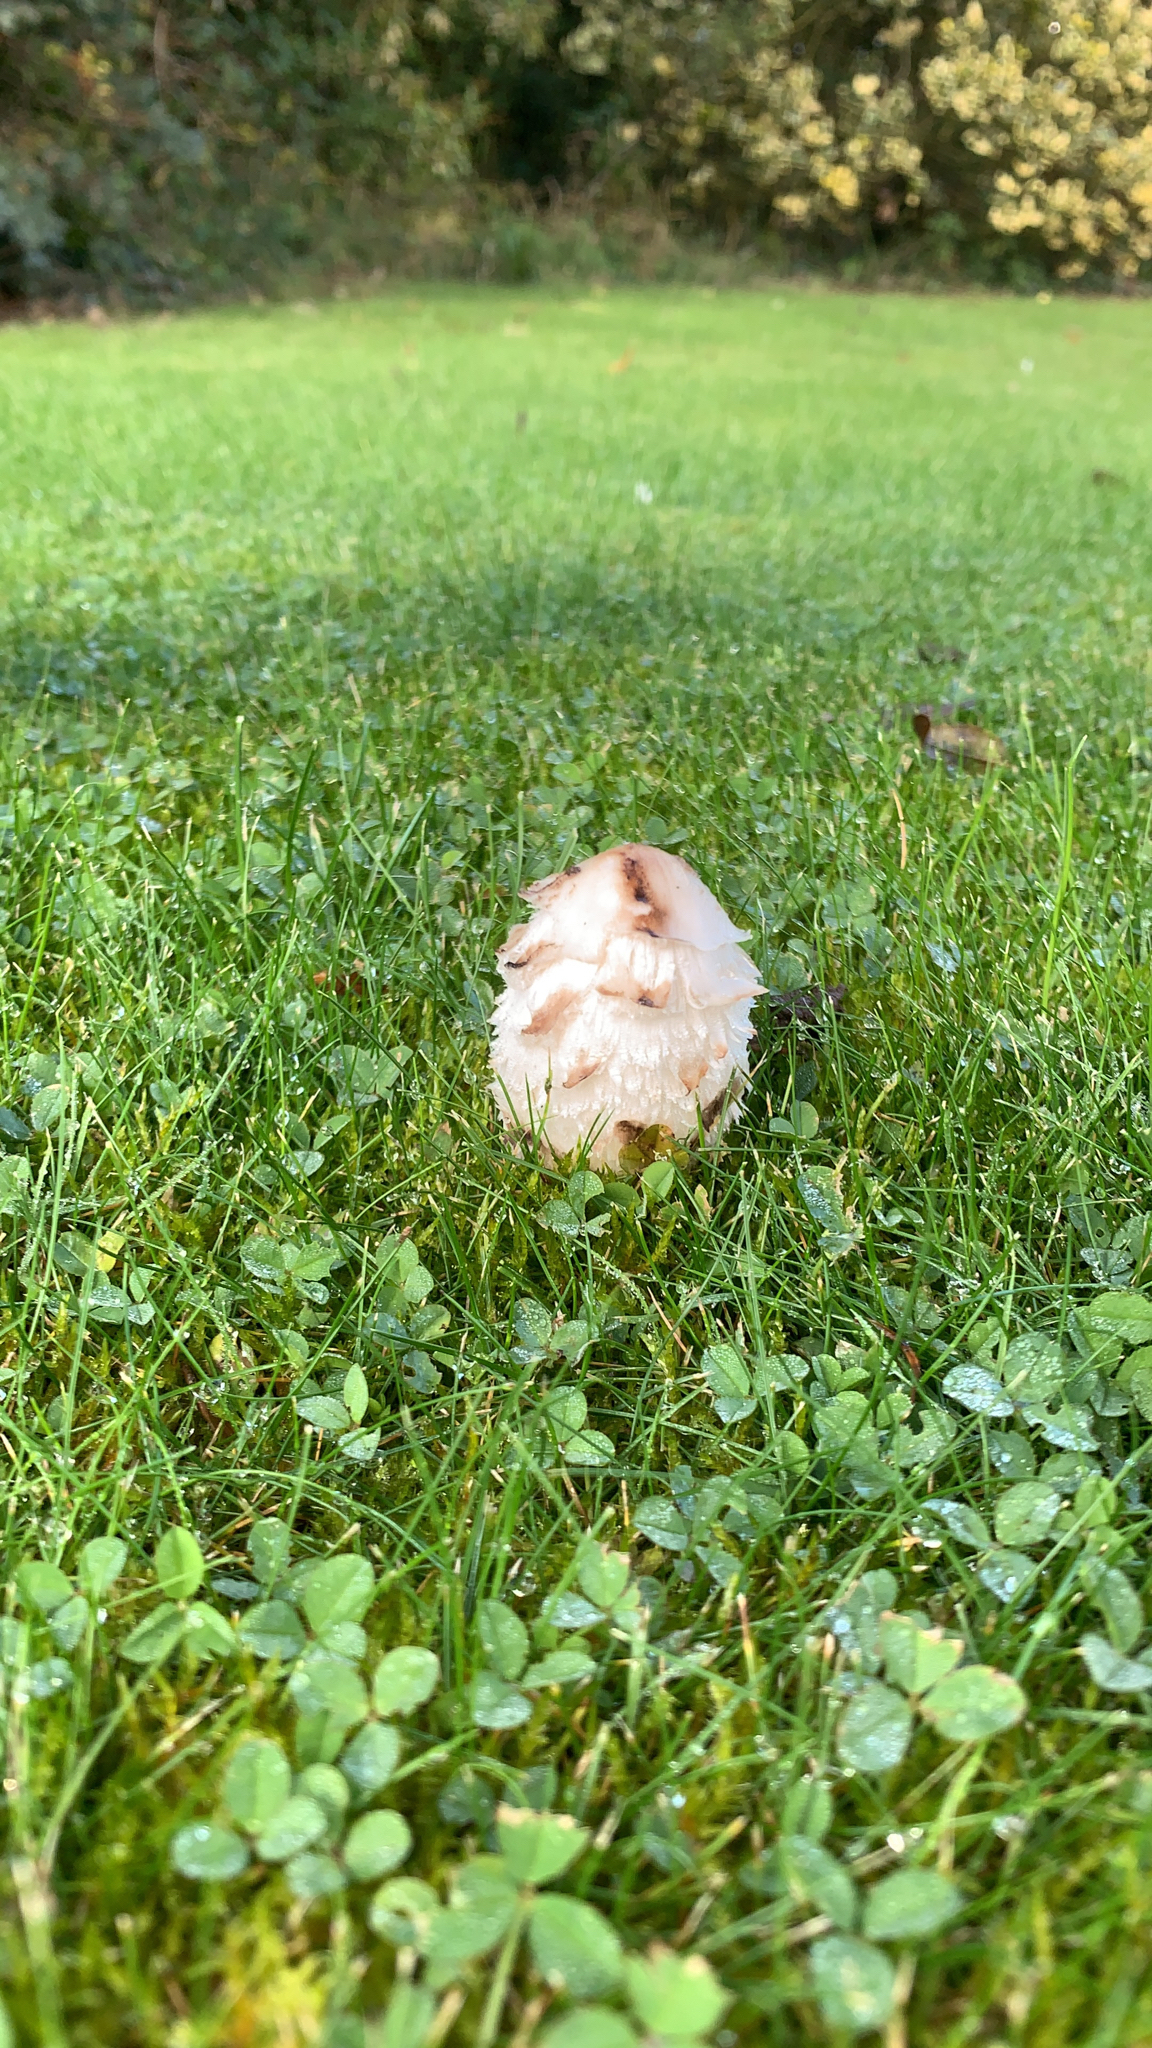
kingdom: Fungi
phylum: Basidiomycota
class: Agaricomycetes
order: Agaricales
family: Agaricaceae
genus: Coprinus
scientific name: Coprinus comatus
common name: Lawyer's wig
